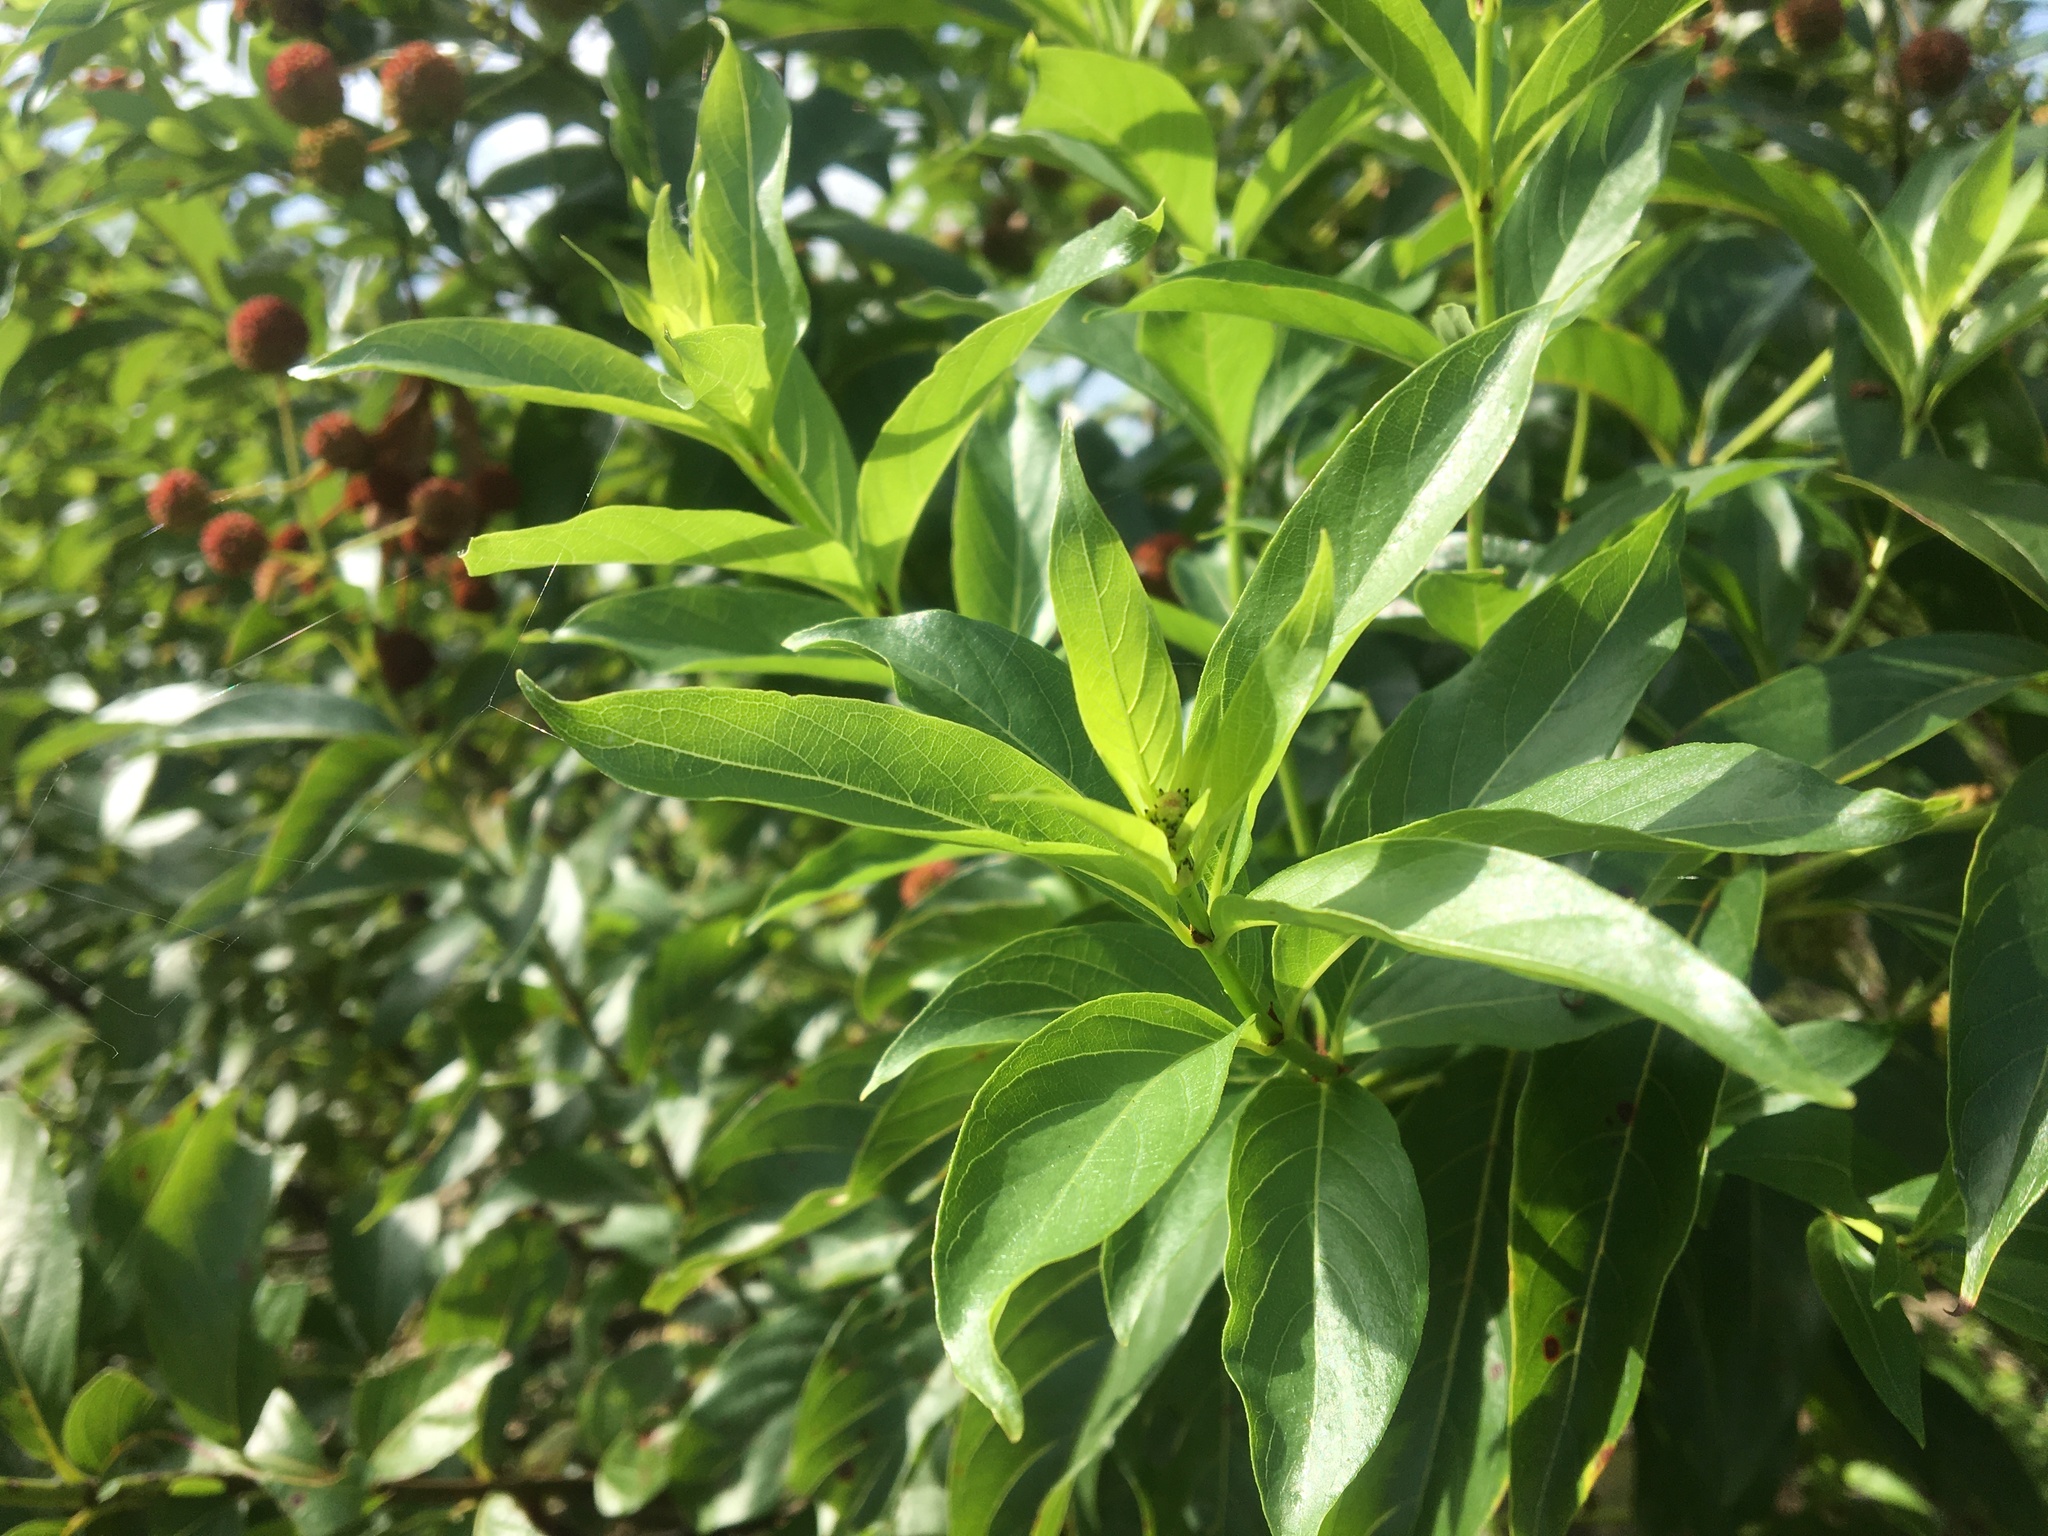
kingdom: Plantae
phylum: Tracheophyta
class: Magnoliopsida
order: Gentianales
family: Rubiaceae
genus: Cephalanthus
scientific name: Cephalanthus occidentalis
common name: Button-willow
